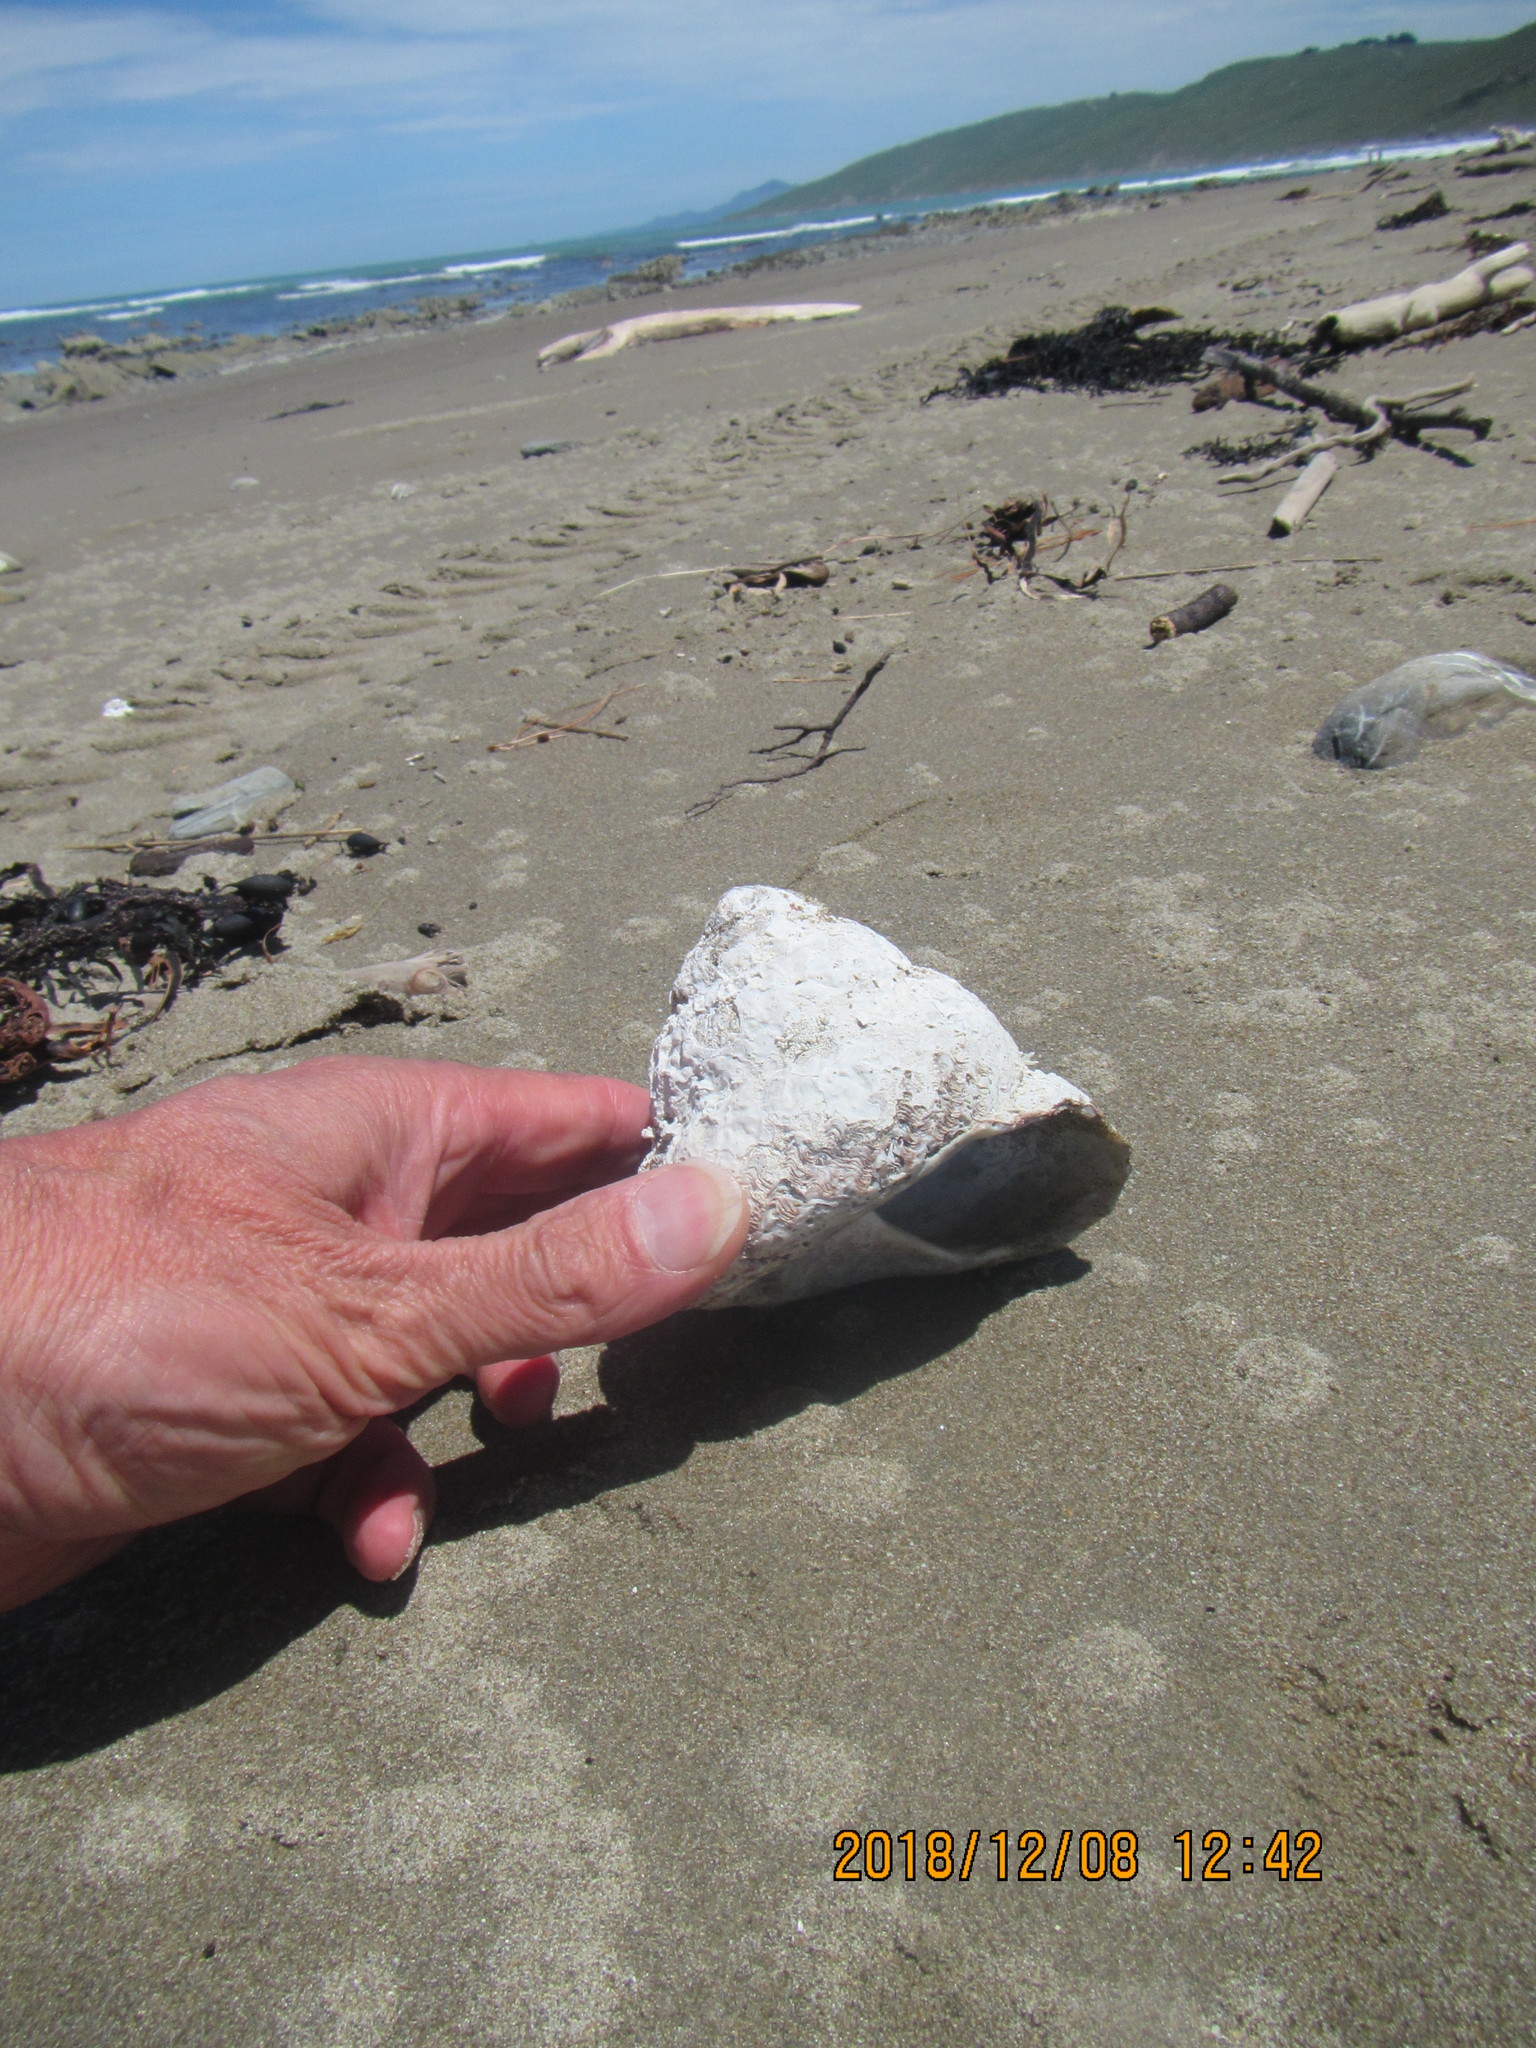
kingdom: Animalia
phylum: Mollusca
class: Gastropoda
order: Trochida
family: Turbinidae
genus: Cookia
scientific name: Cookia sulcata
